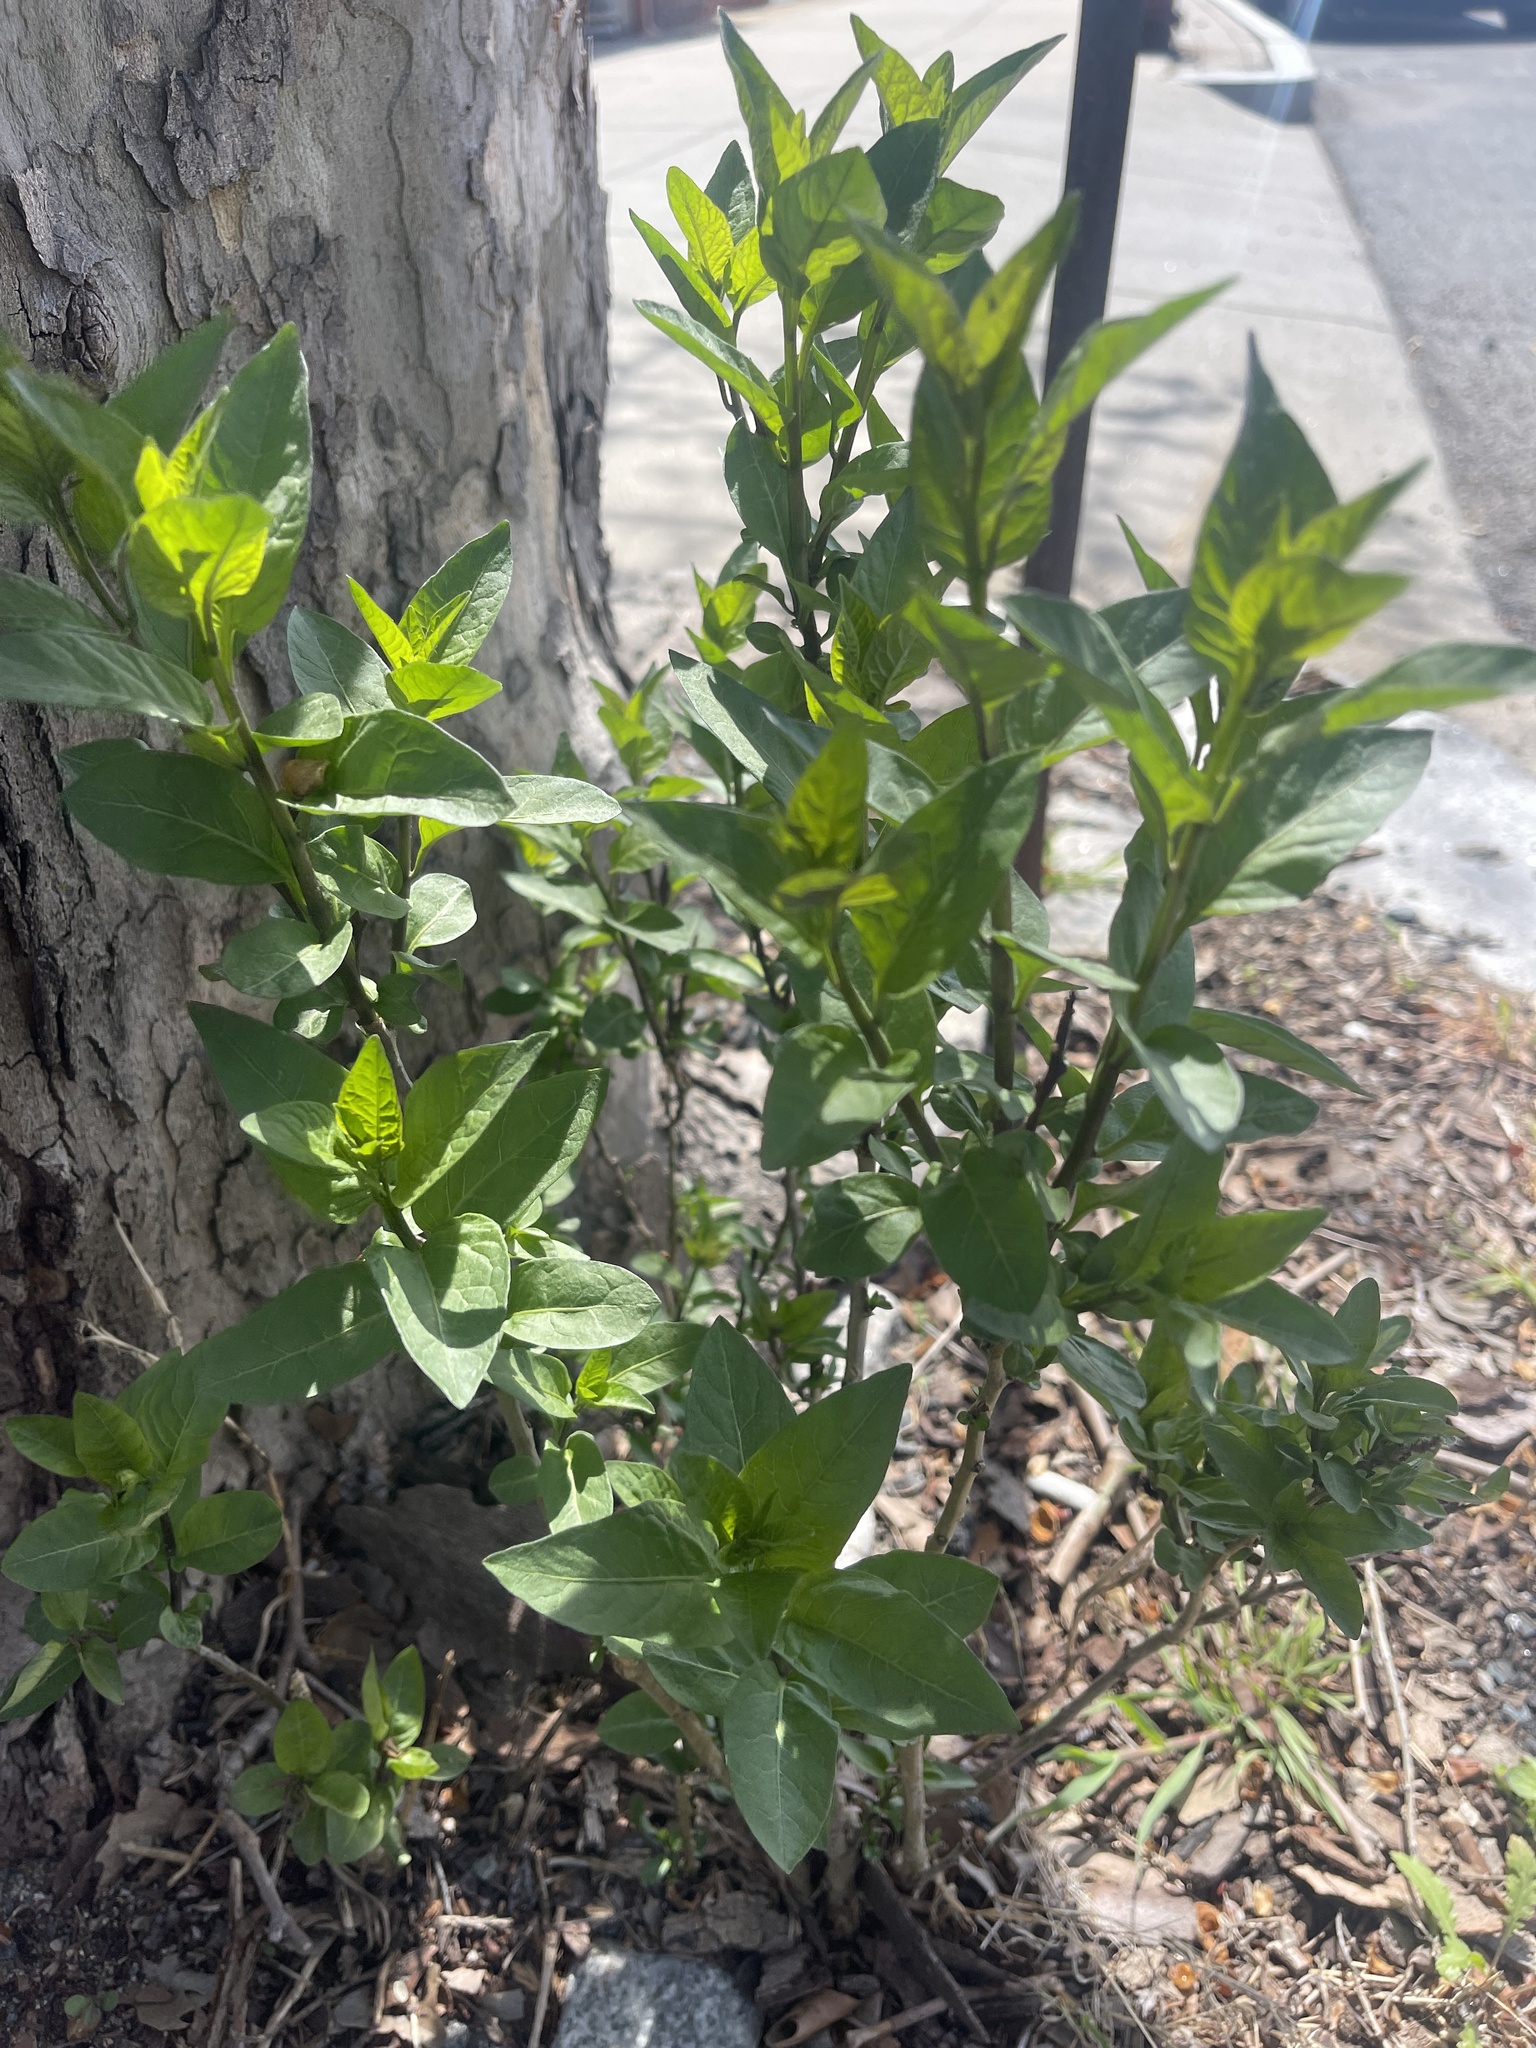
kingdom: Plantae
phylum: Tracheophyta
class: Magnoliopsida
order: Solanales
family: Solanaceae
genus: Solanum
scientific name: Solanum dulcamara
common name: Climbing nightshade
